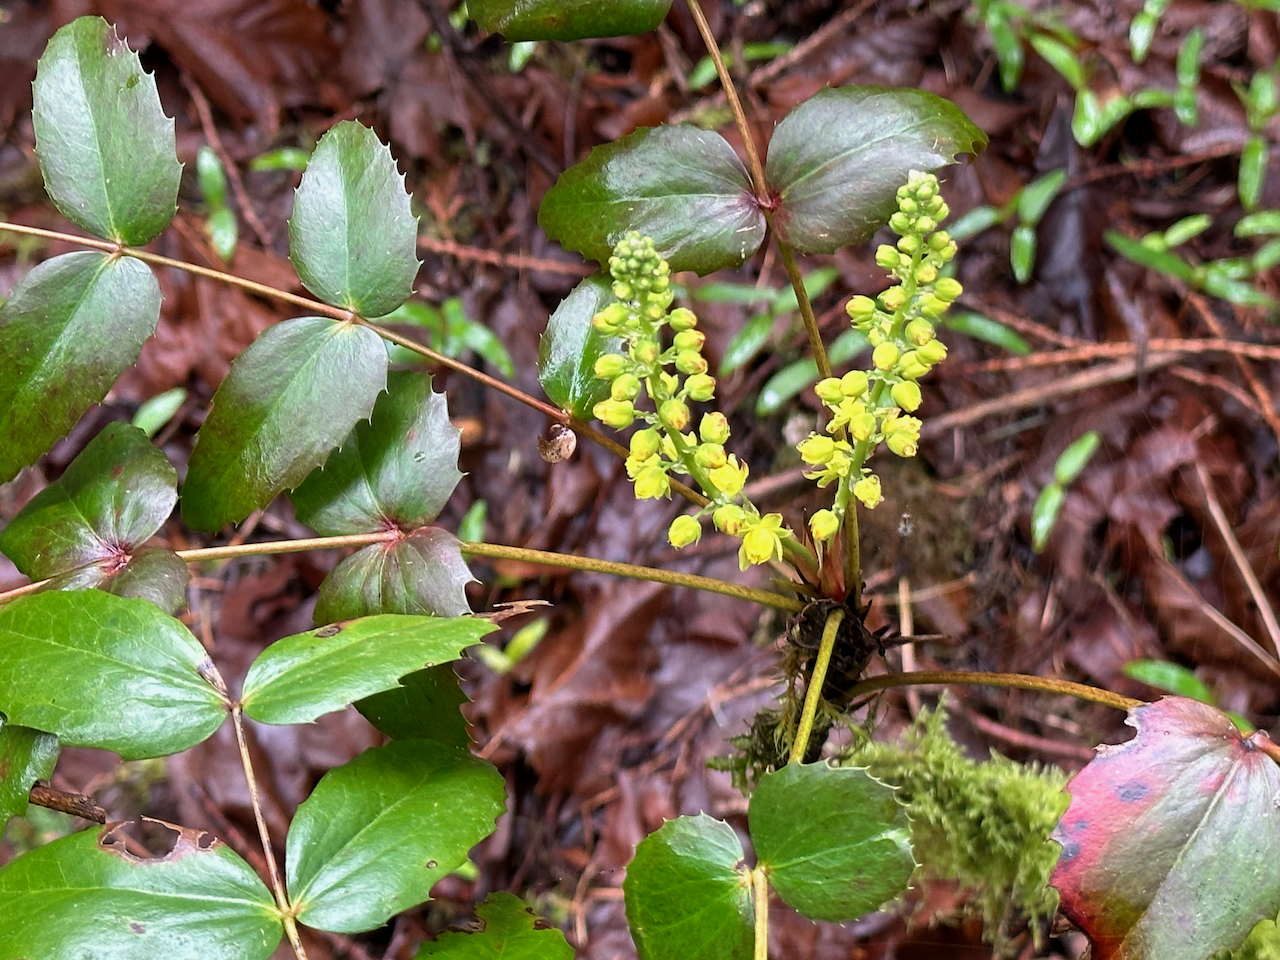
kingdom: Plantae
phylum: Tracheophyta
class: Magnoliopsida
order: Ranunculales
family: Berberidaceae
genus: Mahonia
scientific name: Mahonia nervosa
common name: Cascade oregon-grape
